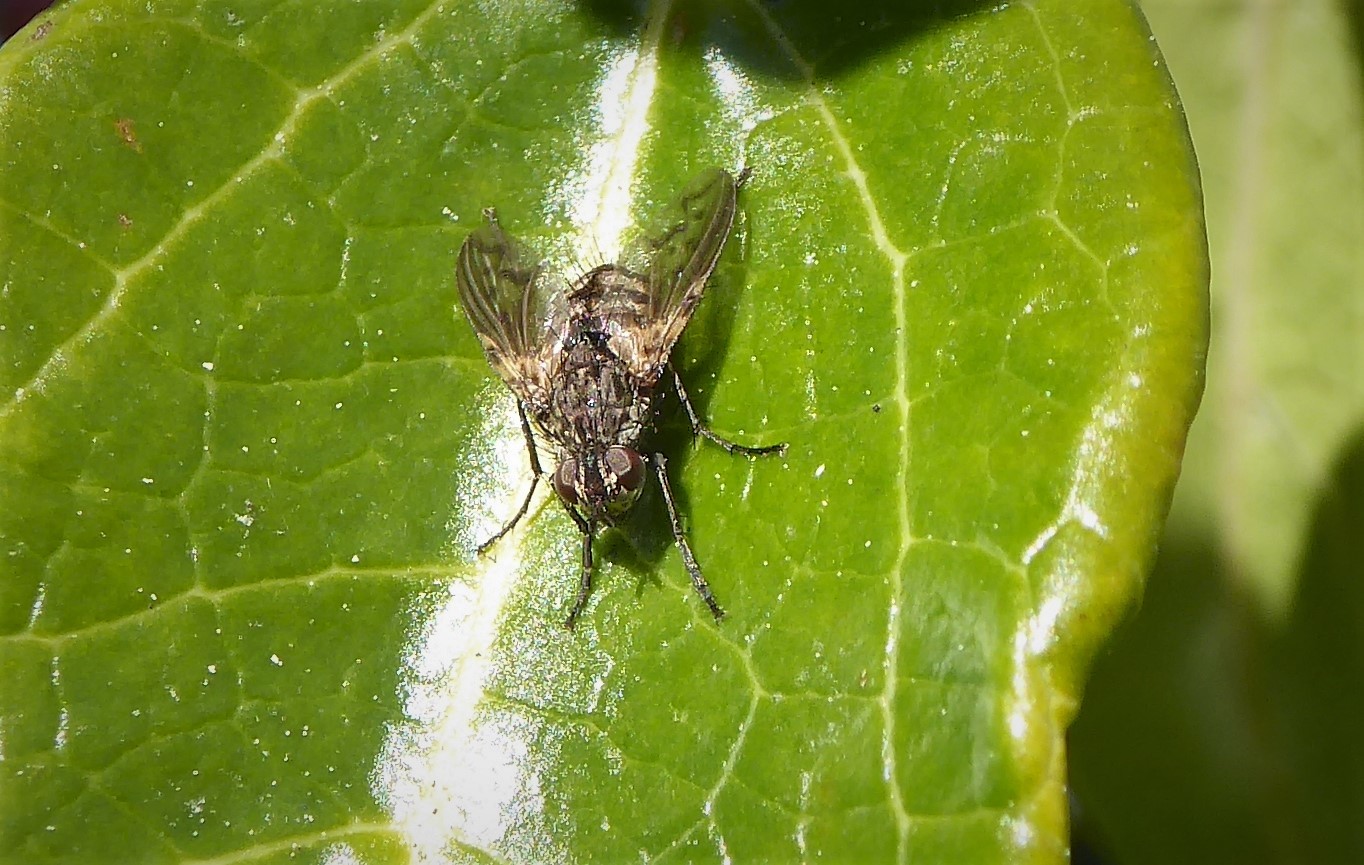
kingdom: Animalia
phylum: Arthropoda
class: Insecta
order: Diptera
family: Tachinidae
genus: Mallochomacquartia
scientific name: Mallochomacquartia vexata
